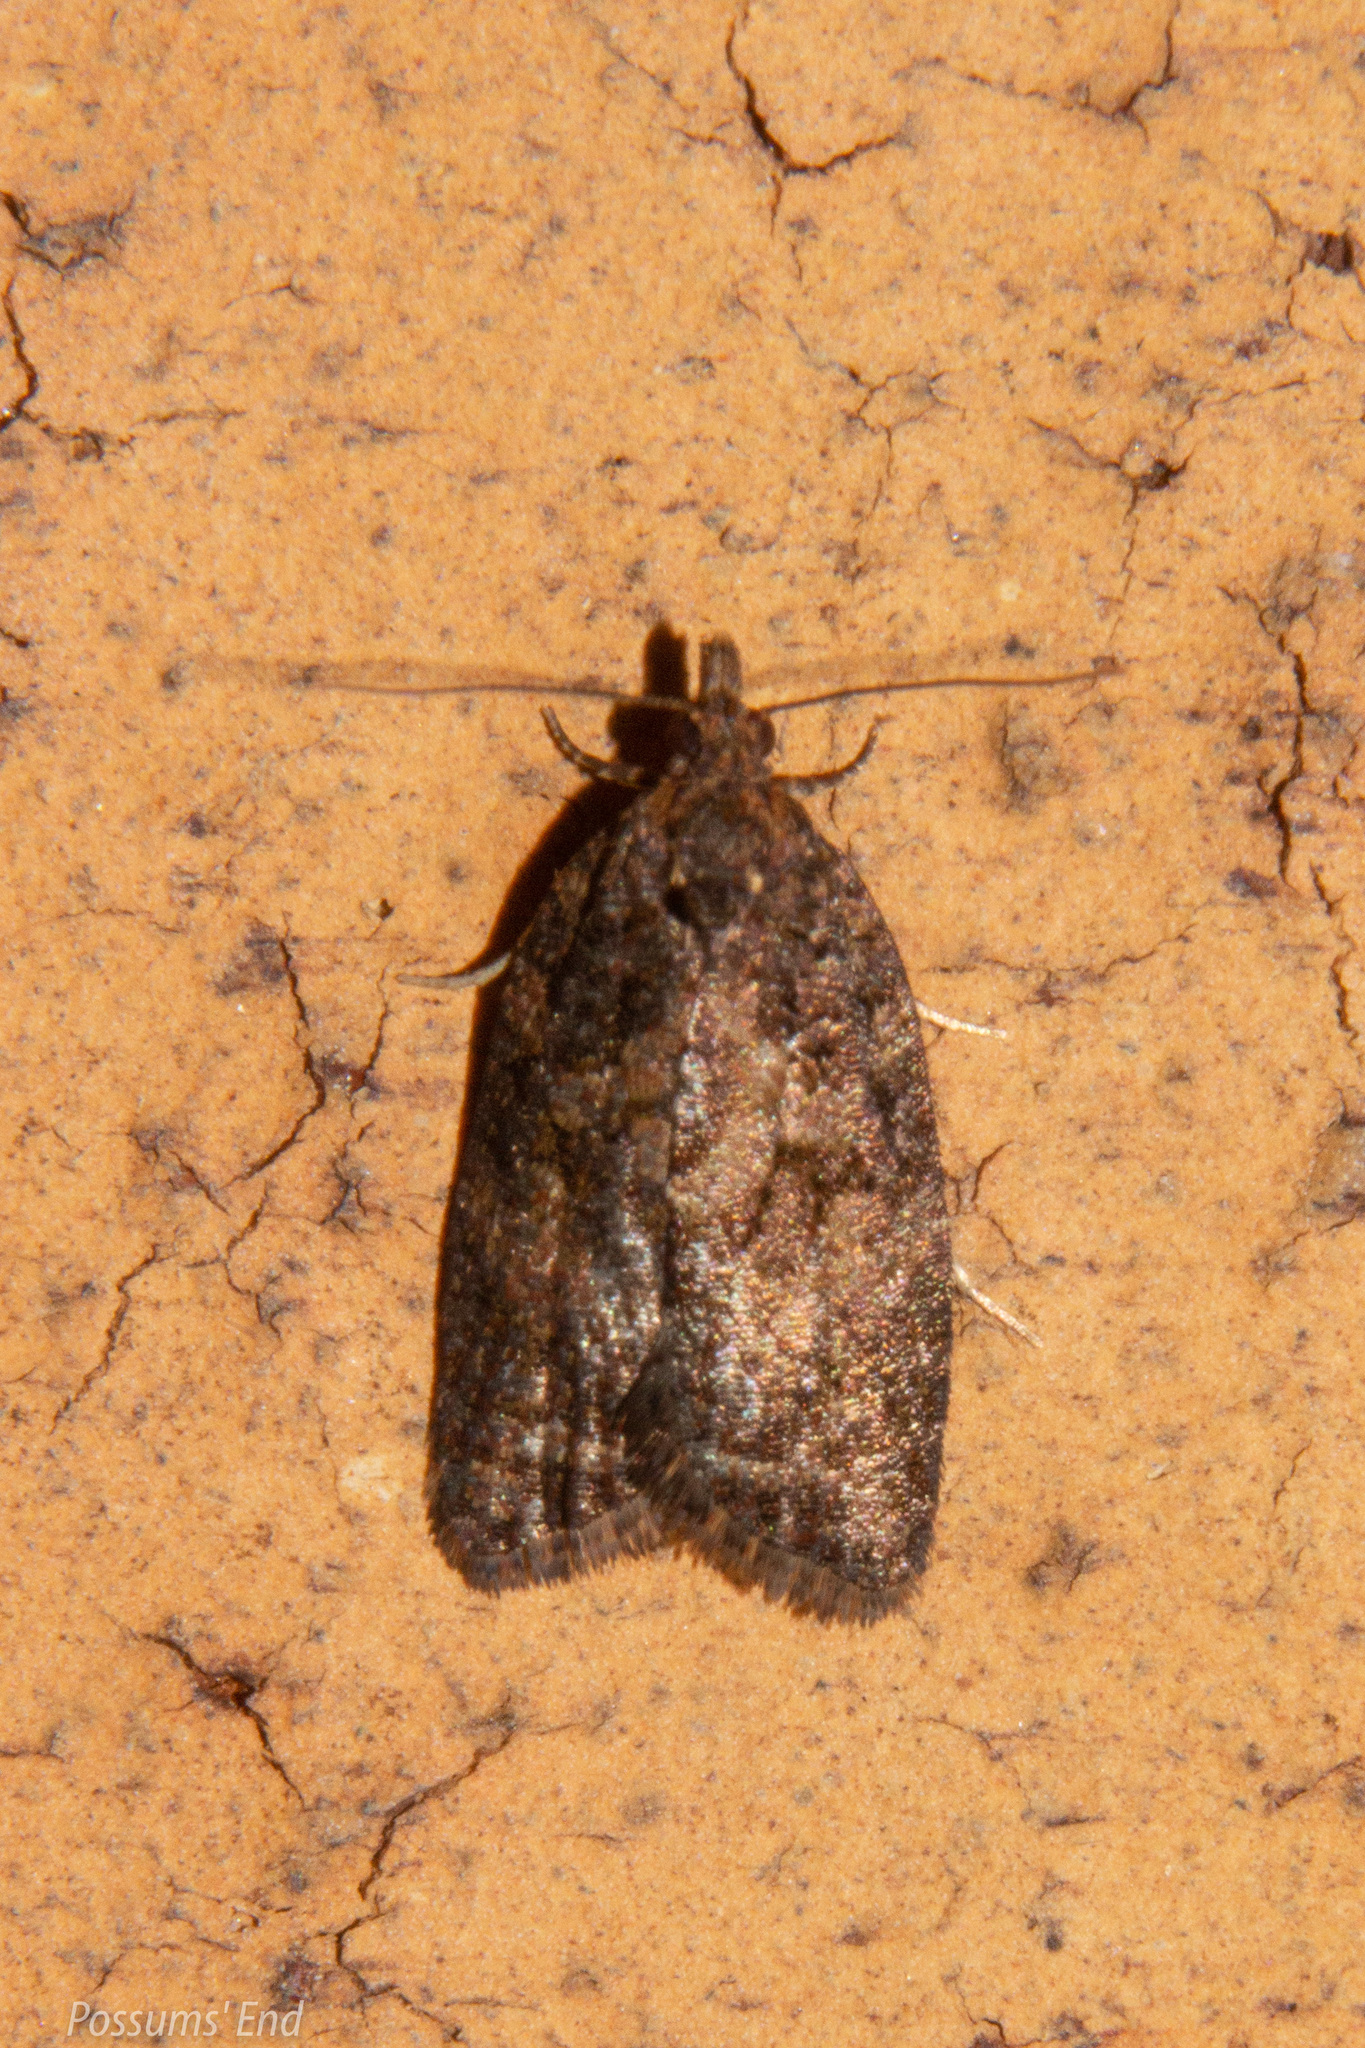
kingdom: Animalia
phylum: Arthropoda
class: Insecta
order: Lepidoptera
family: Tortricidae
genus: Capua
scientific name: Capua intractana
